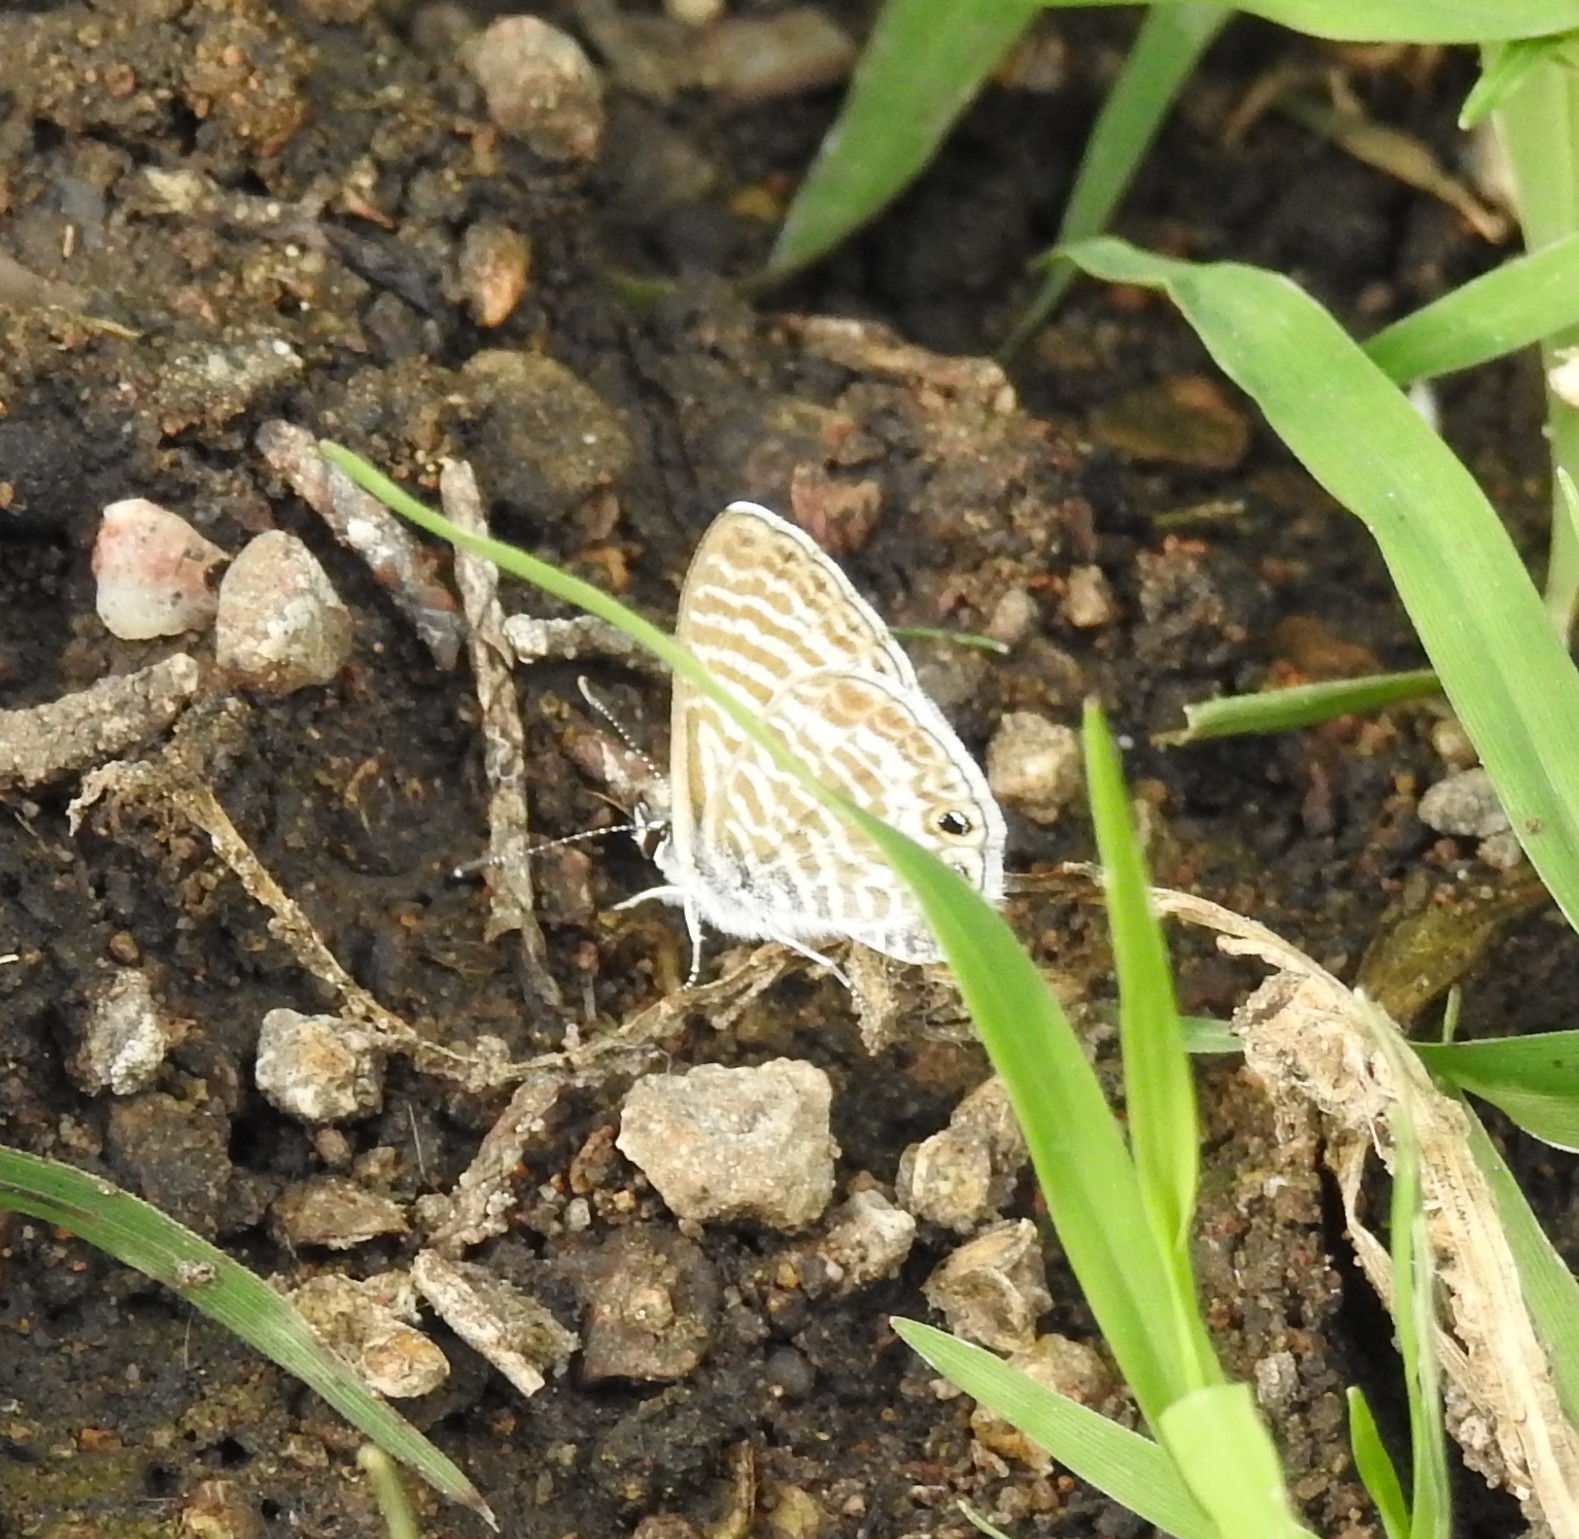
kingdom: Animalia
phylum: Arthropoda
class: Insecta
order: Lepidoptera
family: Lycaenidae
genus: Leptotes
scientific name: Leptotes marina
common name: Marine blue
